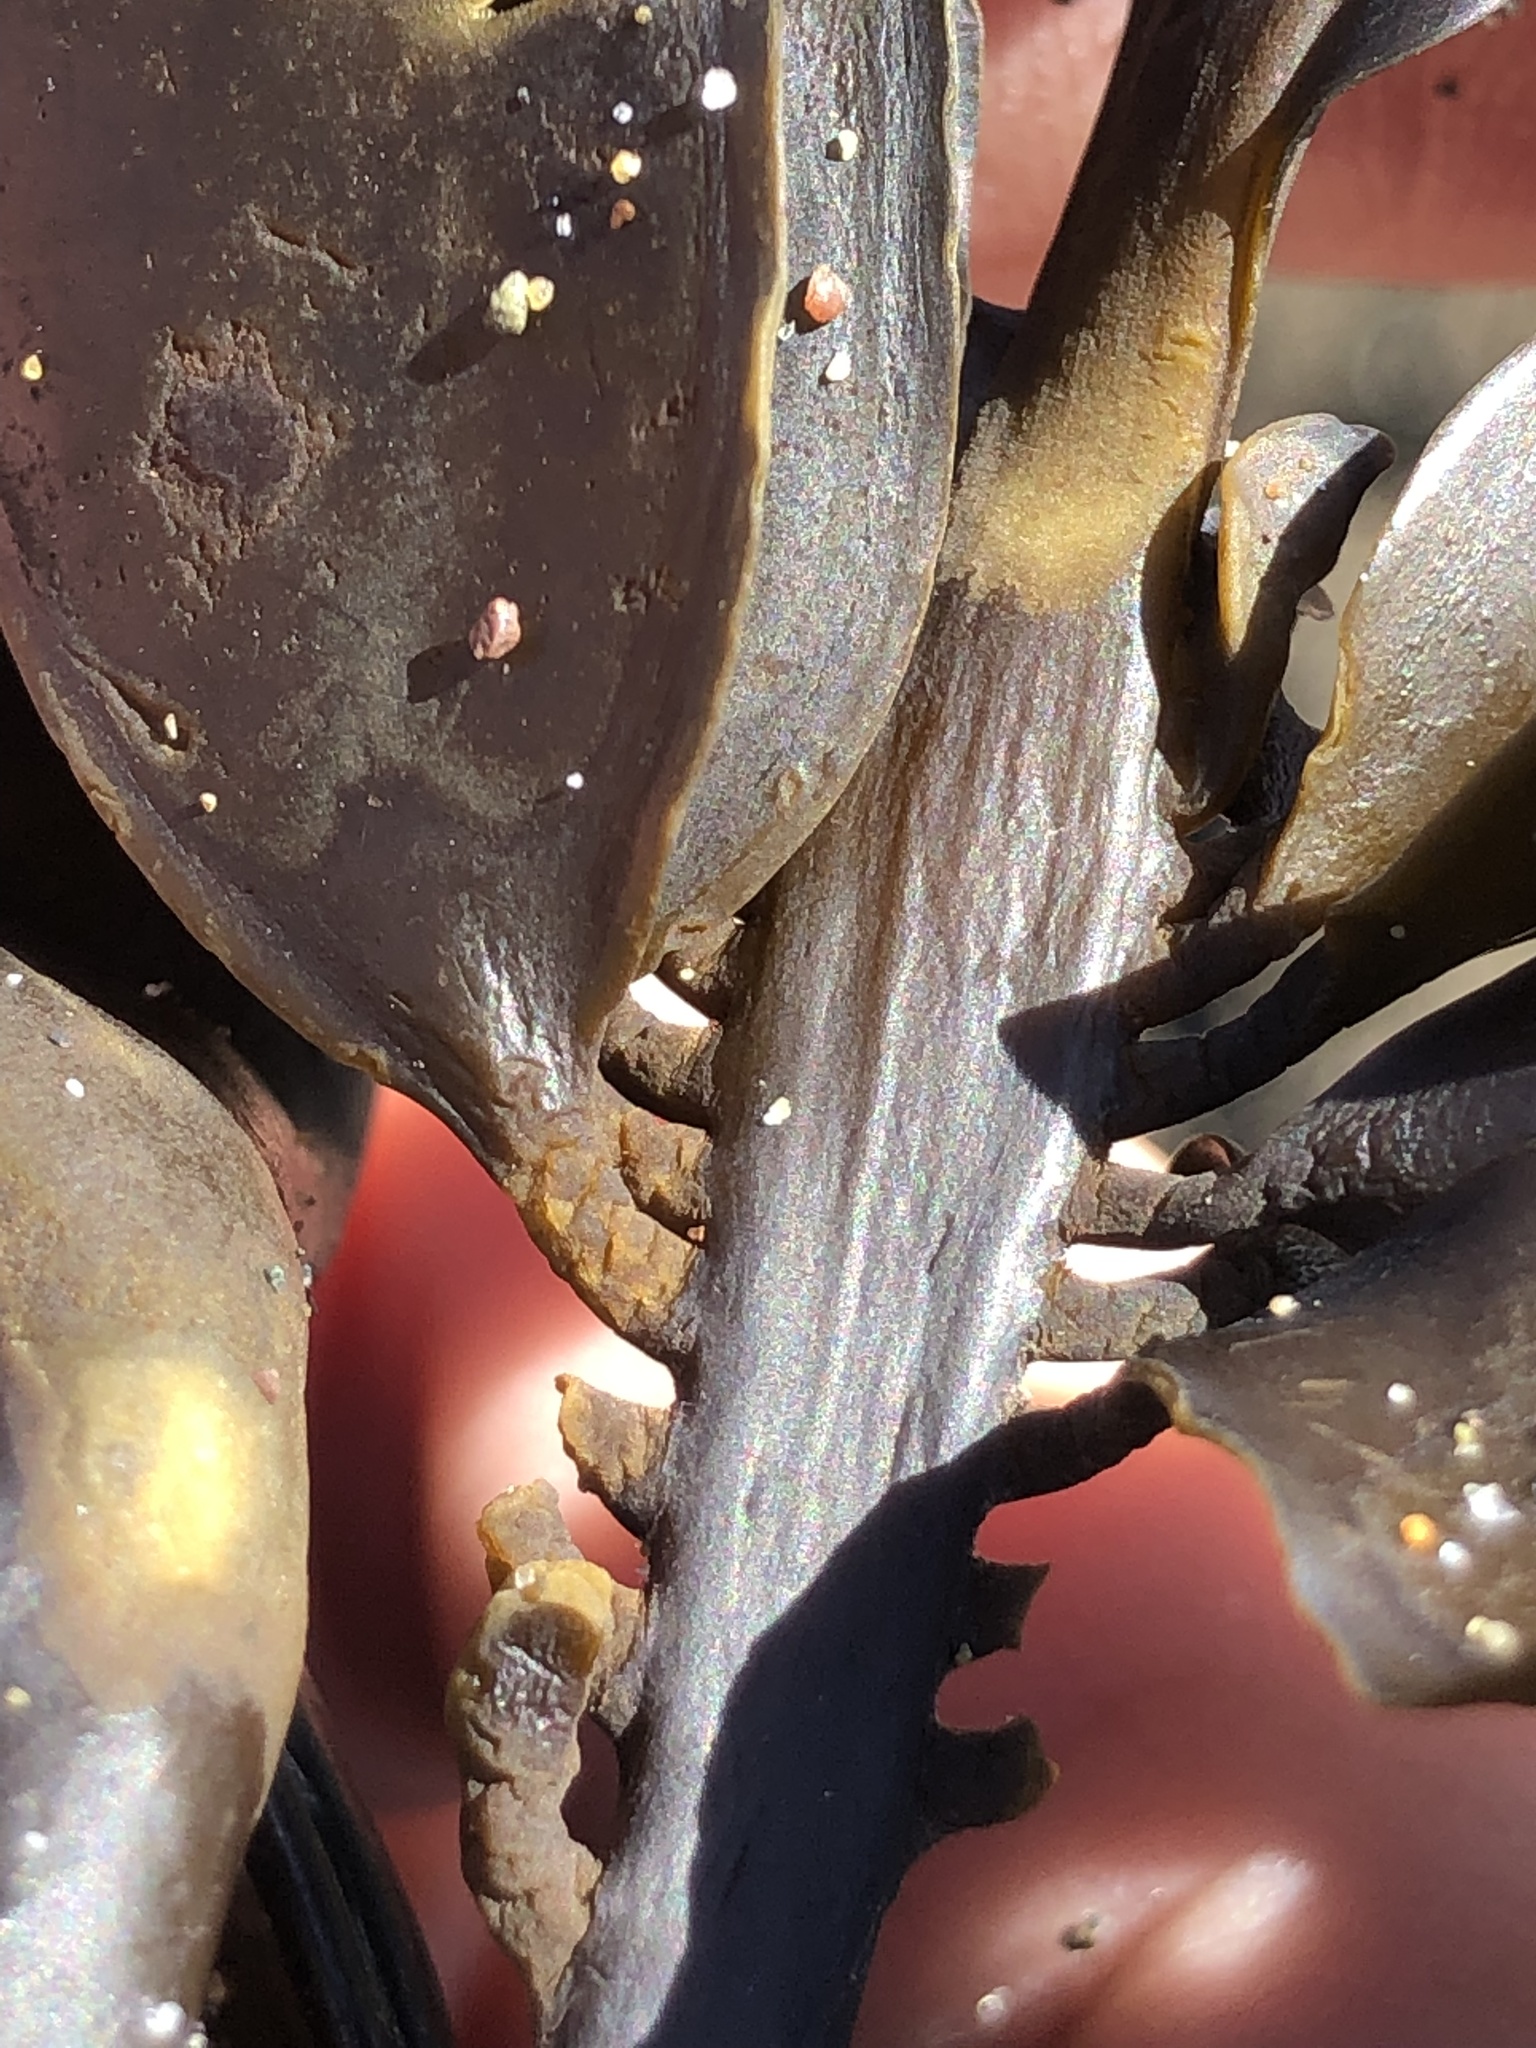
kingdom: Chromista
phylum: Ochrophyta
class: Phaeophyceae
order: Laminariales
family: Alariaceae
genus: Alaria
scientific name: Alaria marginata
